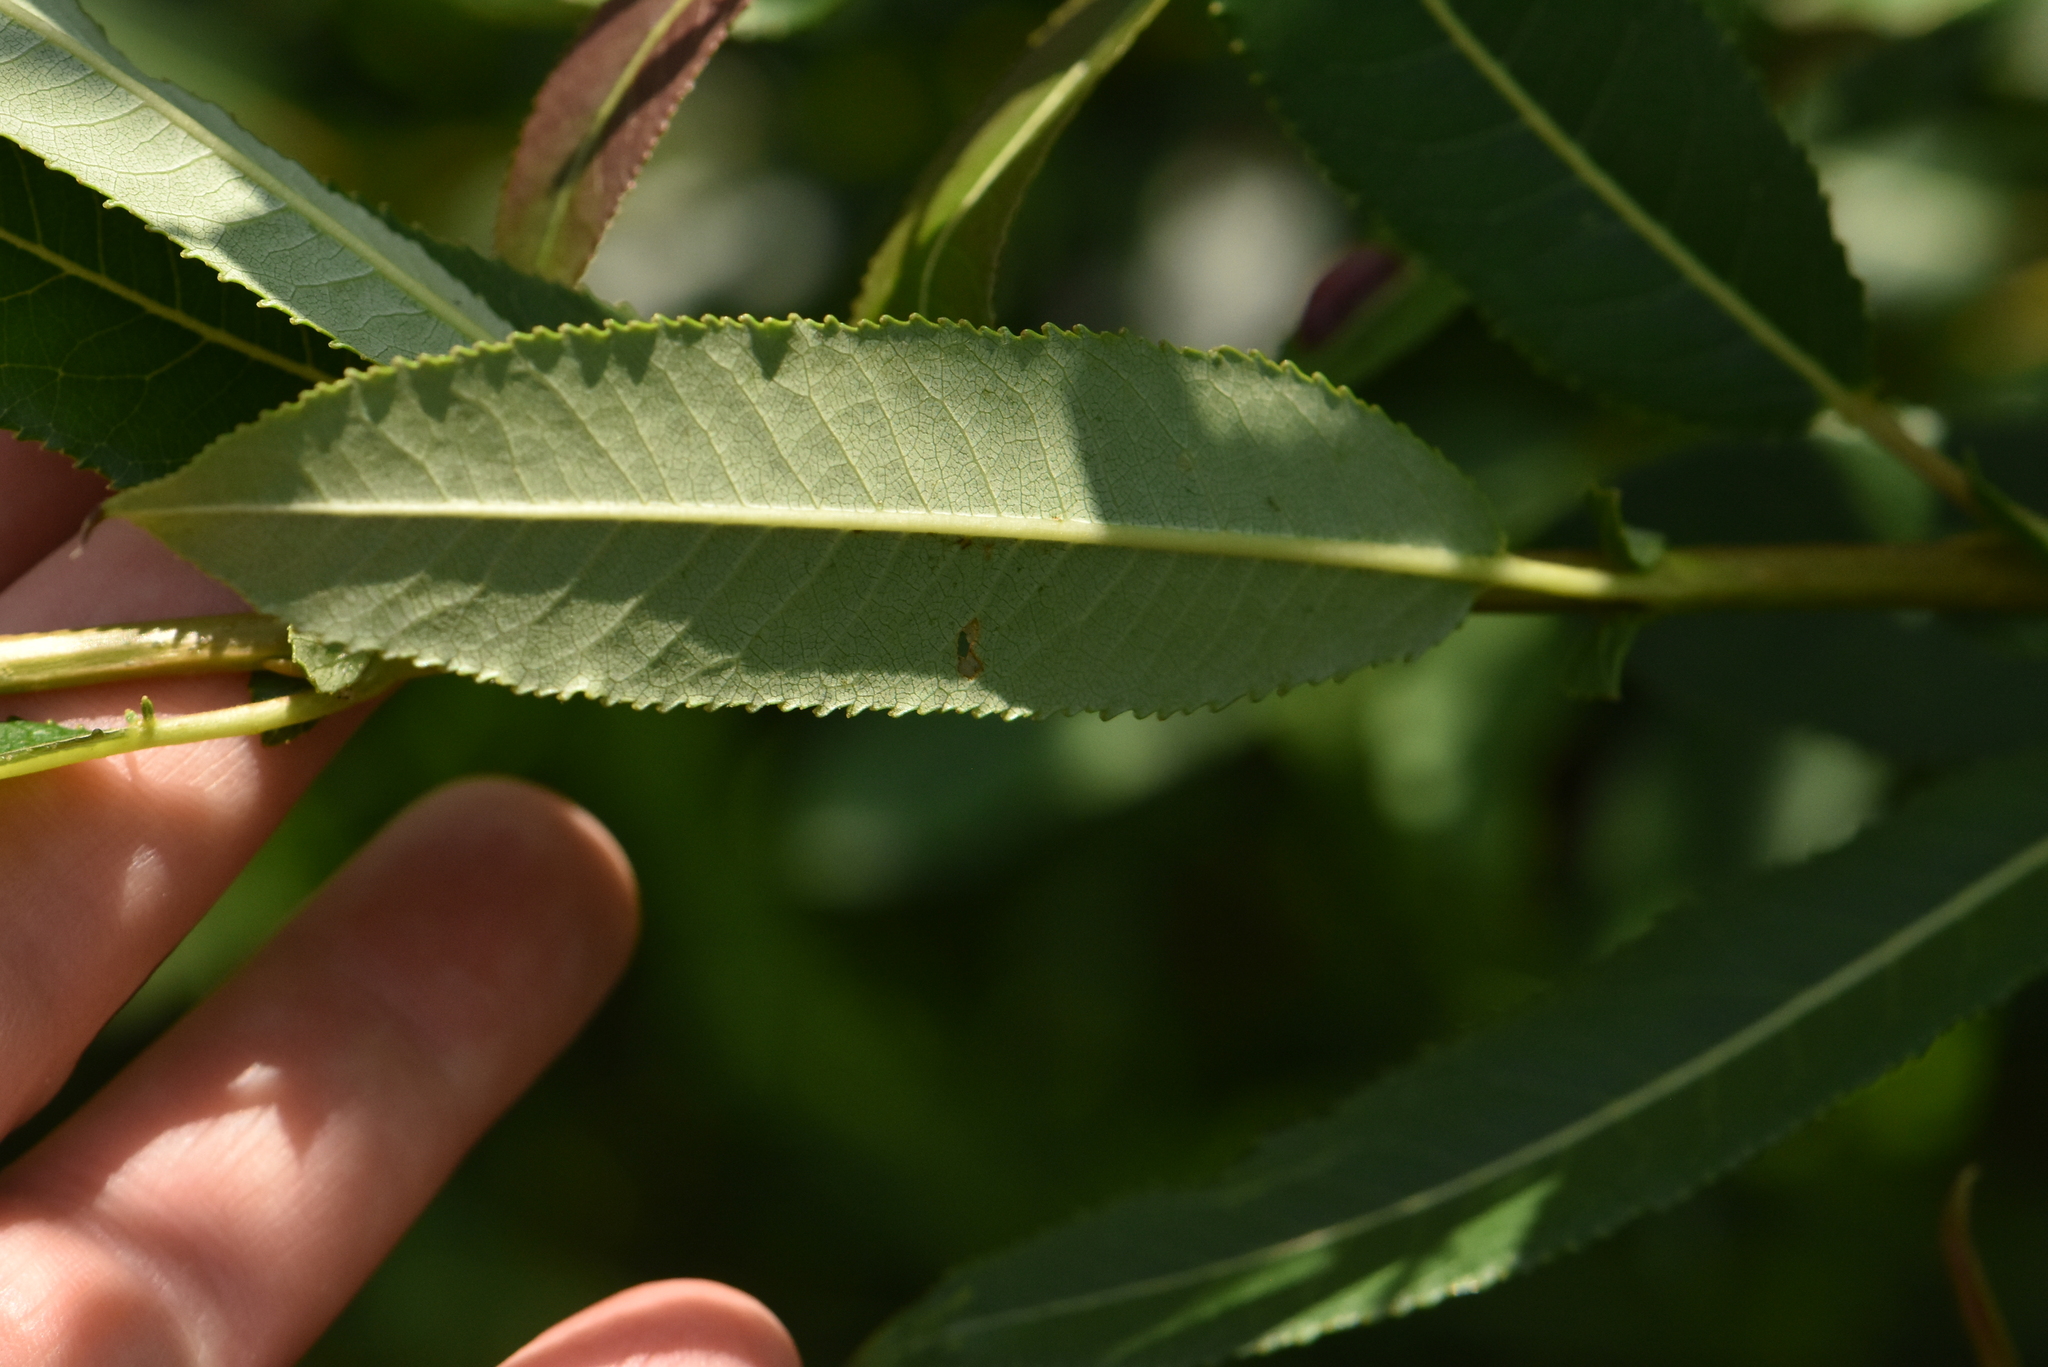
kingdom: Plantae
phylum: Tracheophyta
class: Magnoliopsida
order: Malpighiales
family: Salicaceae
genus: Salix
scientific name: Salix triandra
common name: Almond willow
